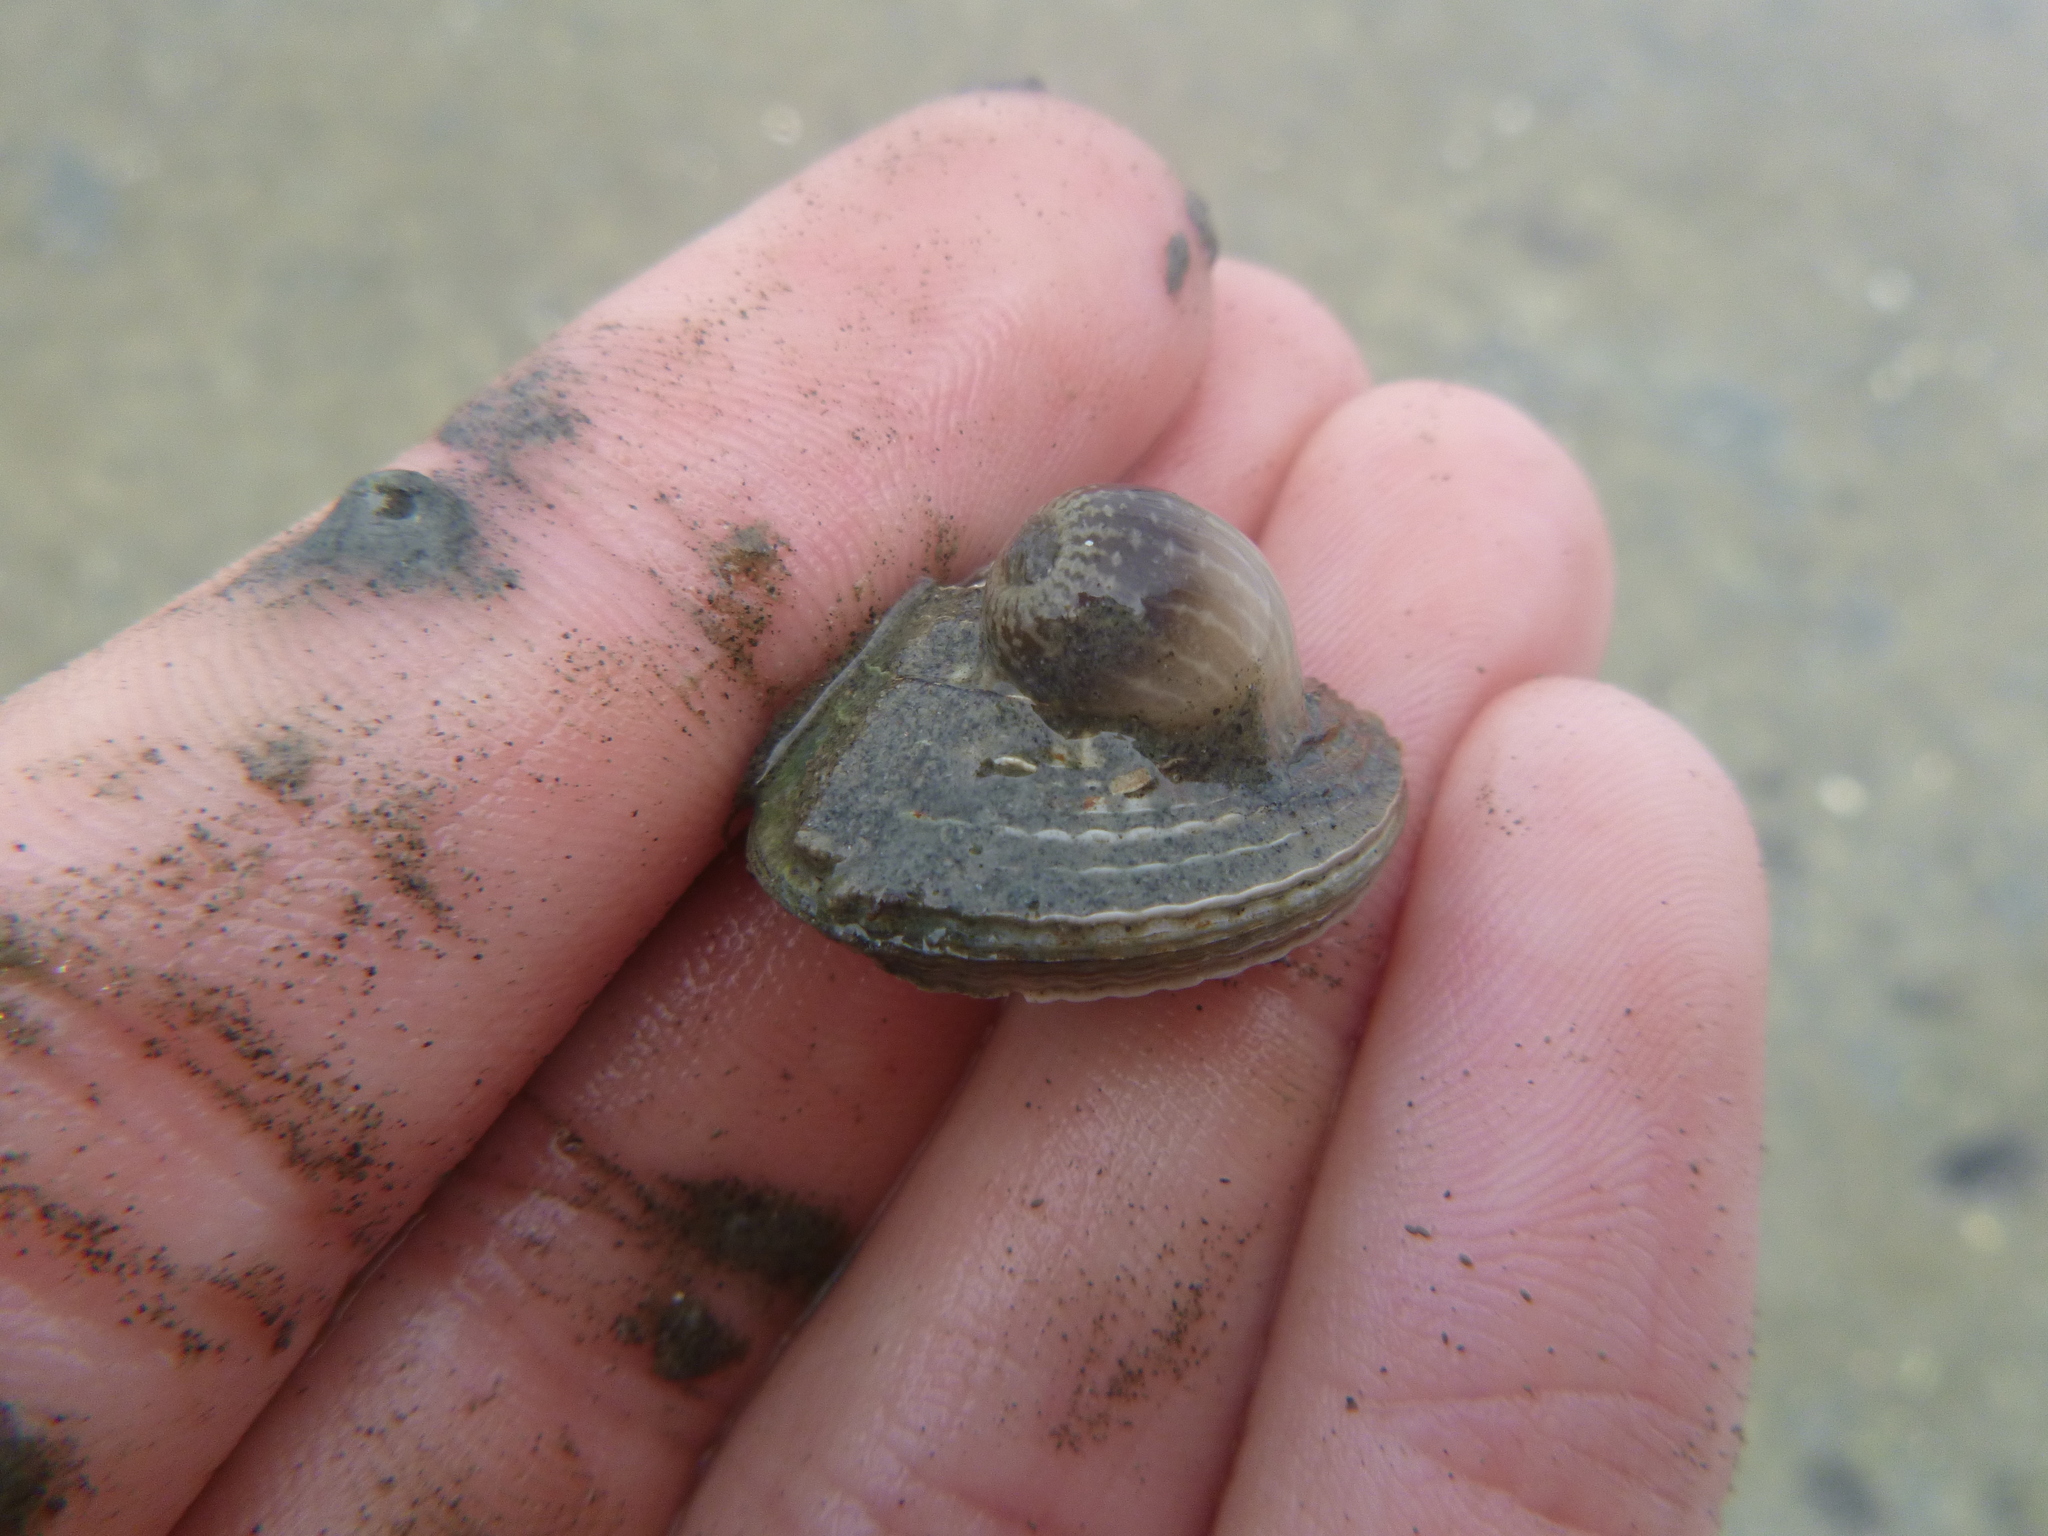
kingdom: Animalia
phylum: Cnidaria
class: Anthozoa
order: Actiniaria
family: Actiniidae
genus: Anthopleura
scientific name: Anthopleura hermaphroditica
